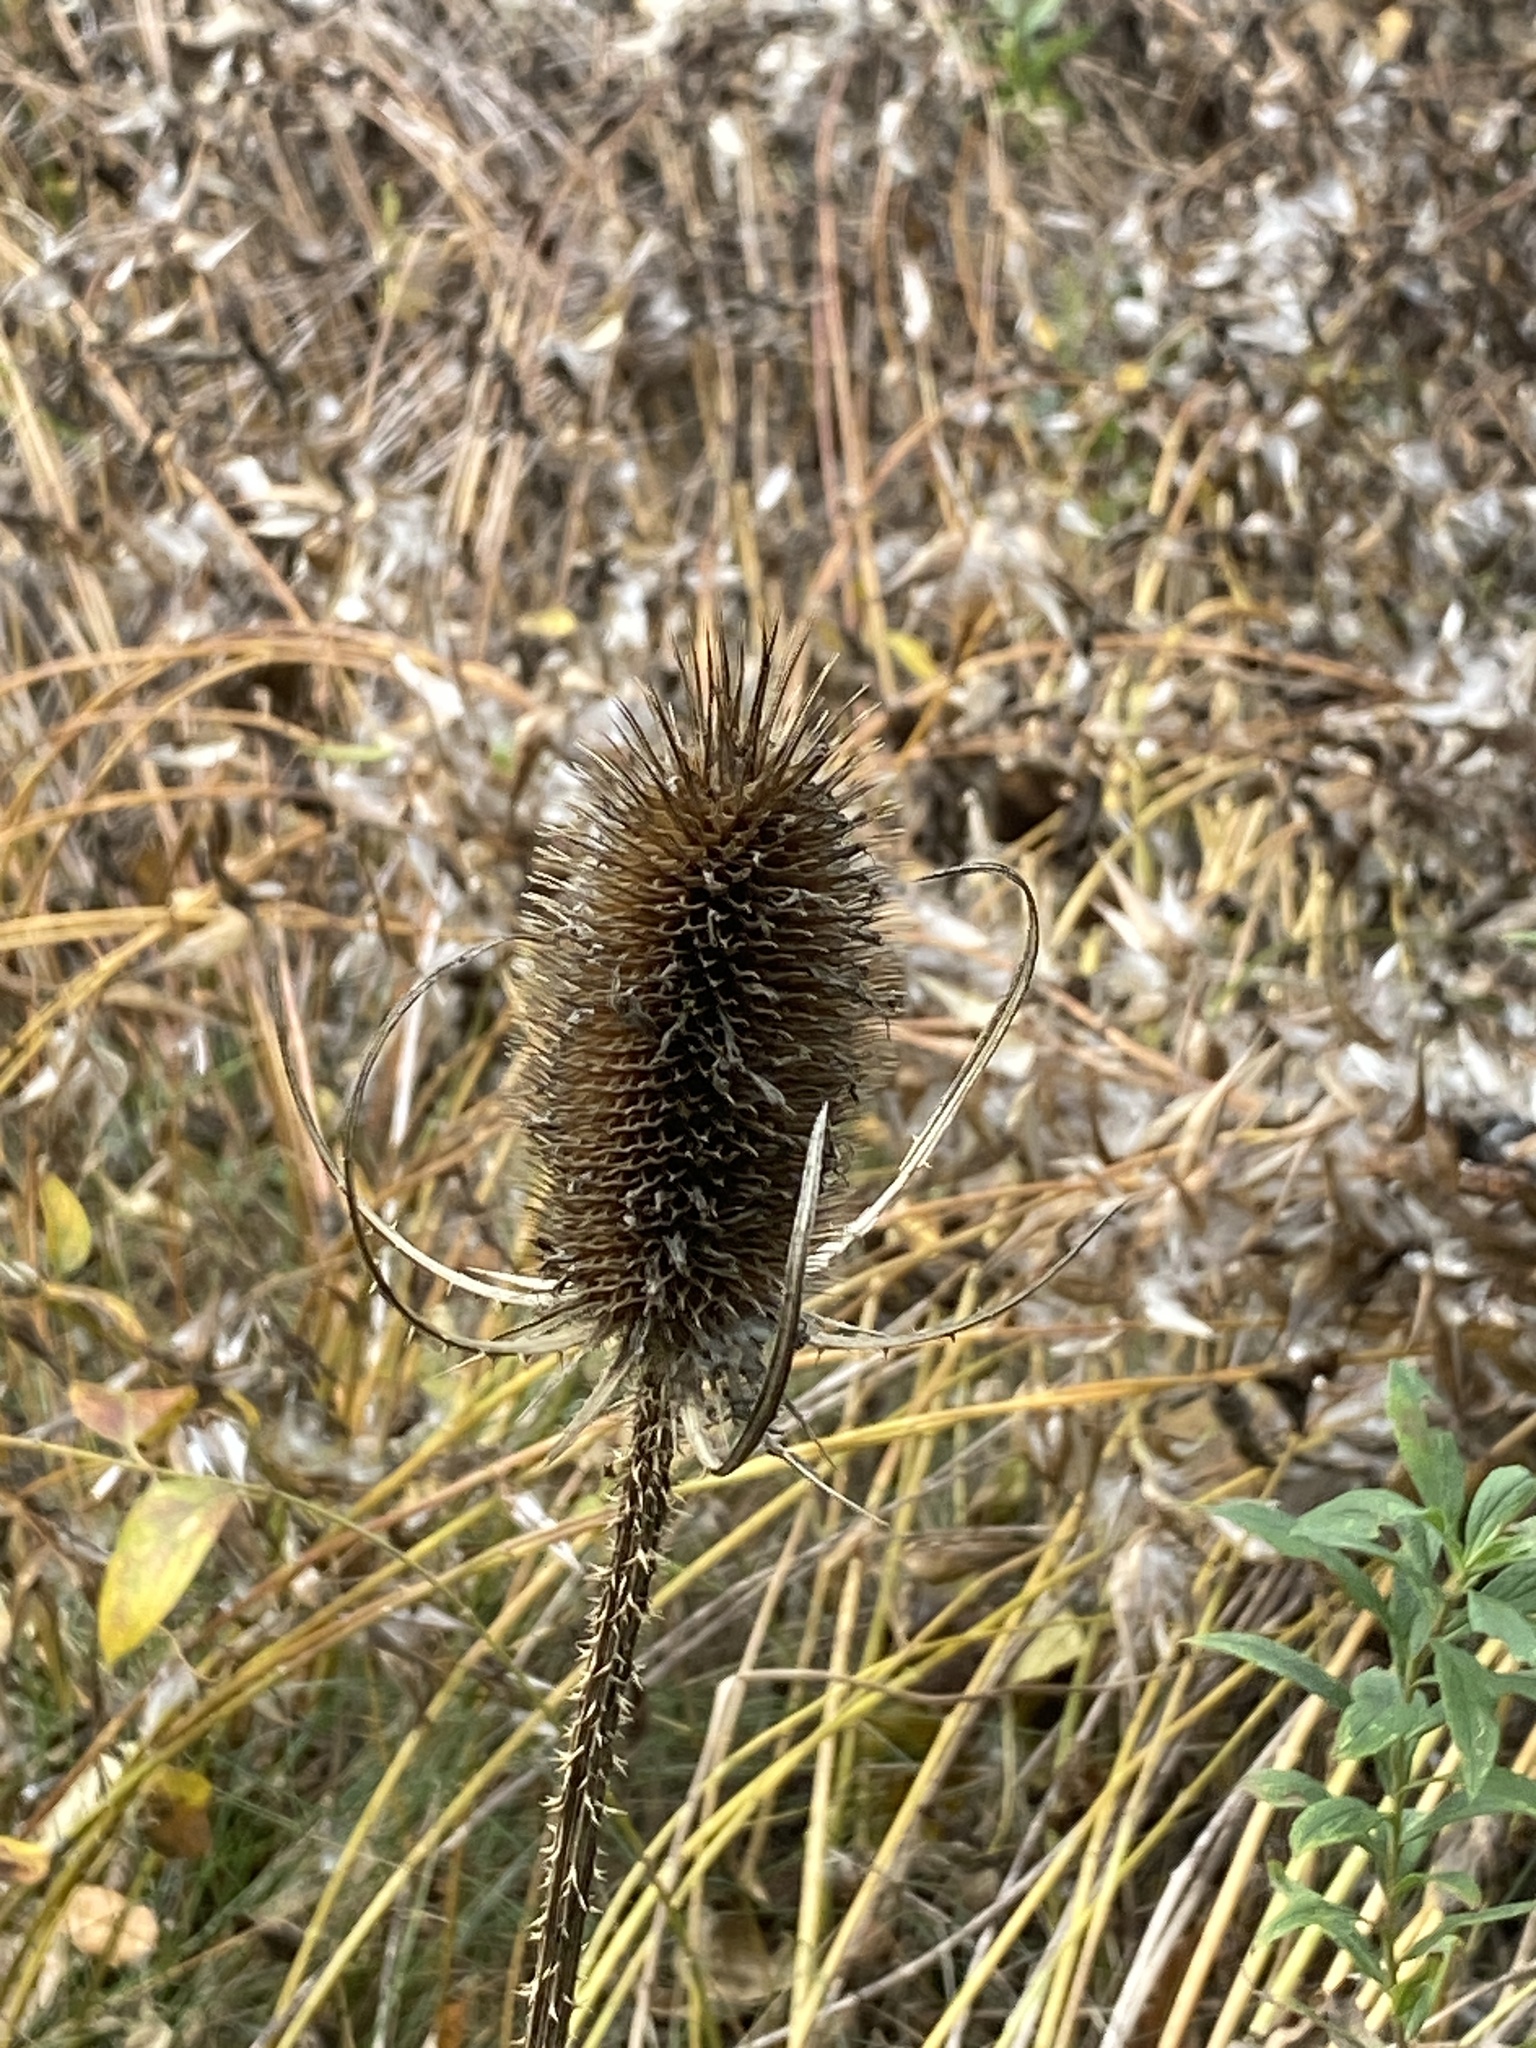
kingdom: Plantae
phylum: Tracheophyta
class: Magnoliopsida
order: Dipsacales
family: Caprifoliaceae
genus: Dipsacus
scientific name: Dipsacus fullonum
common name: Teasel
